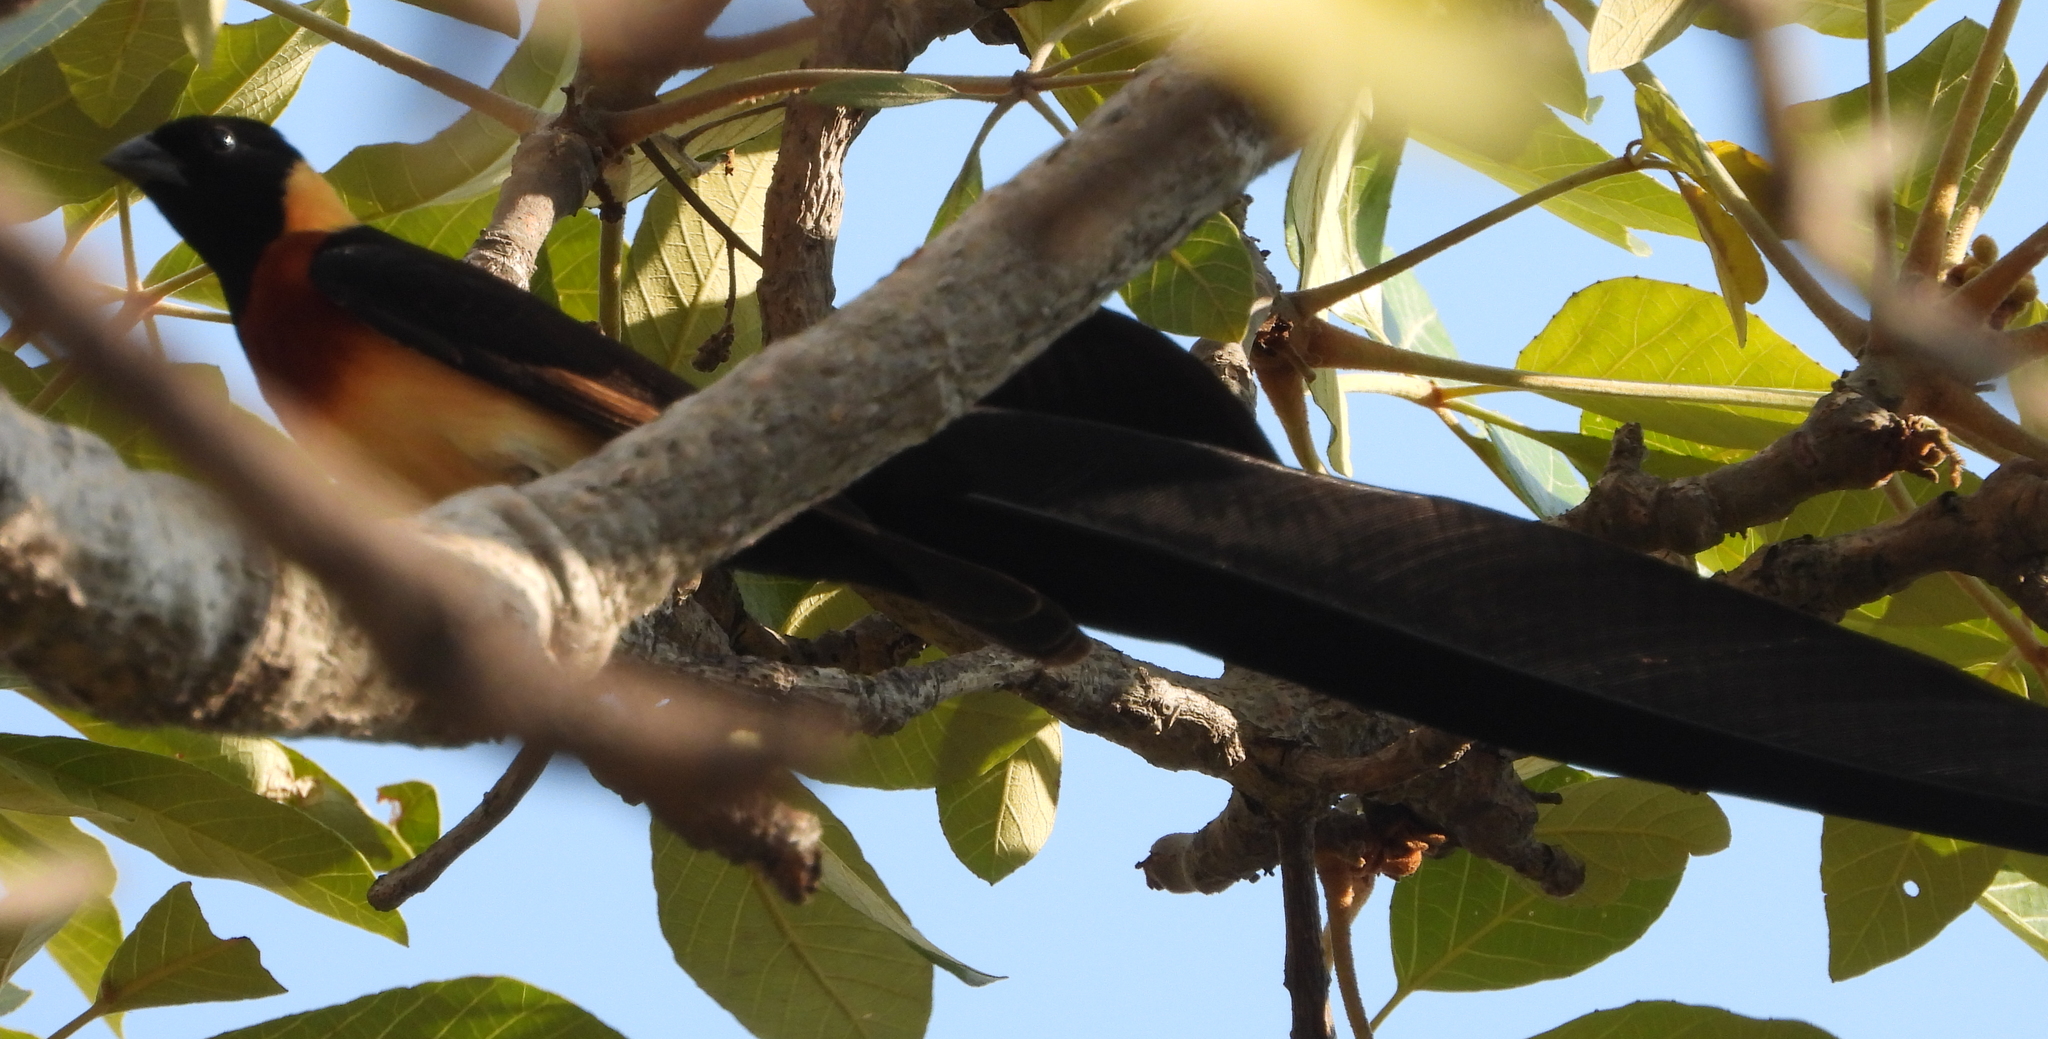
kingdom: Animalia
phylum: Chordata
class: Aves
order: Passeriformes
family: Viduidae
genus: Vidua
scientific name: Vidua paradisaea
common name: Long-tailed paradise whydah
